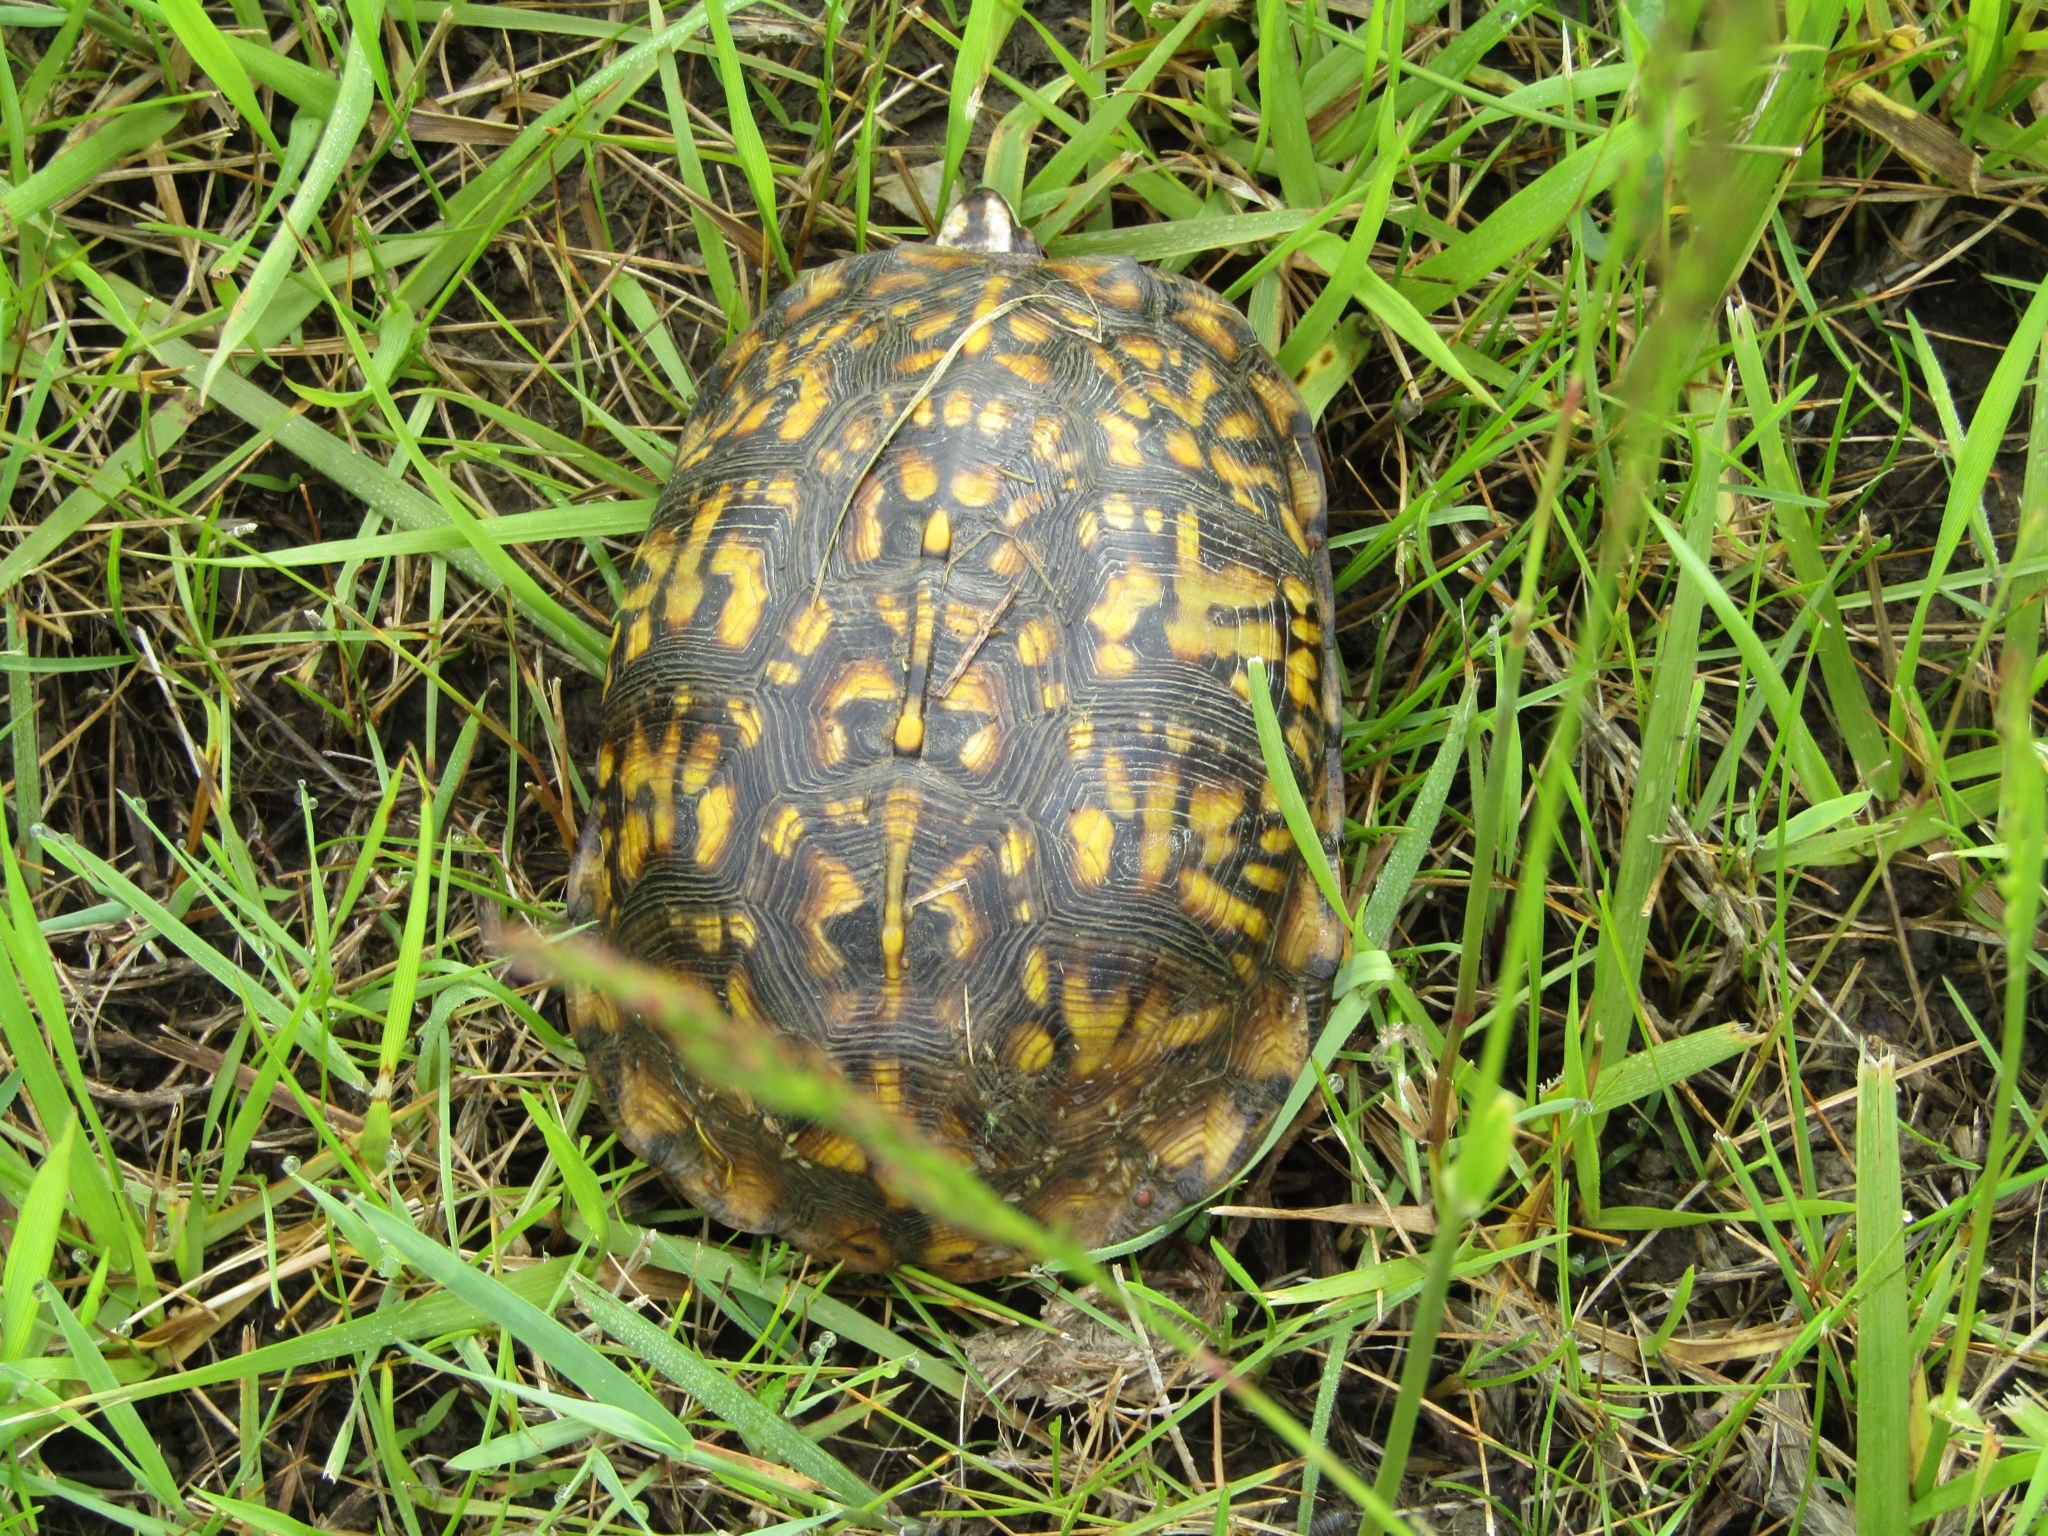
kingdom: Animalia
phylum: Chordata
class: Testudines
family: Emydidae
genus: Terrapene
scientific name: Terrapene carolina
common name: Common box turtle
